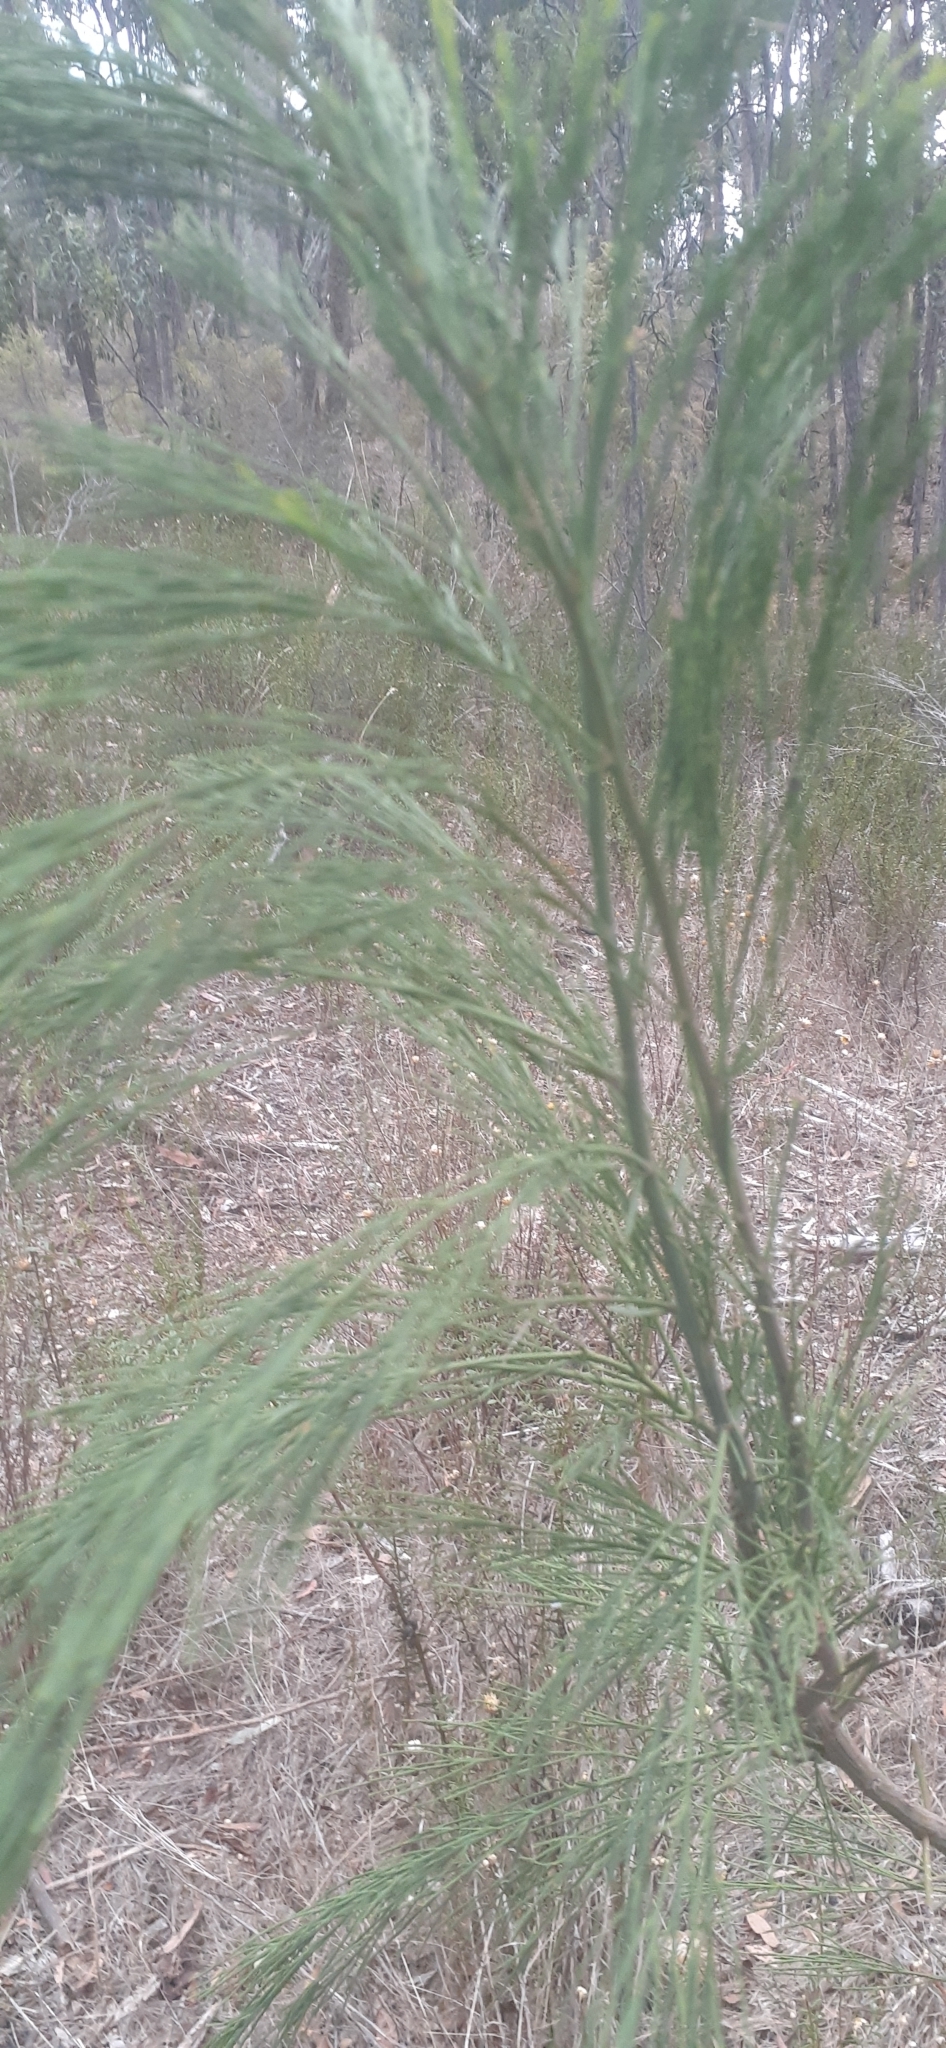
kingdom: Plantae
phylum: Tracheophyta
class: Magnoliopsida
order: Santalales
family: Santalaceae
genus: Exocarpos
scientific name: Exocarpos cupressiformis
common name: Cherry ballart
